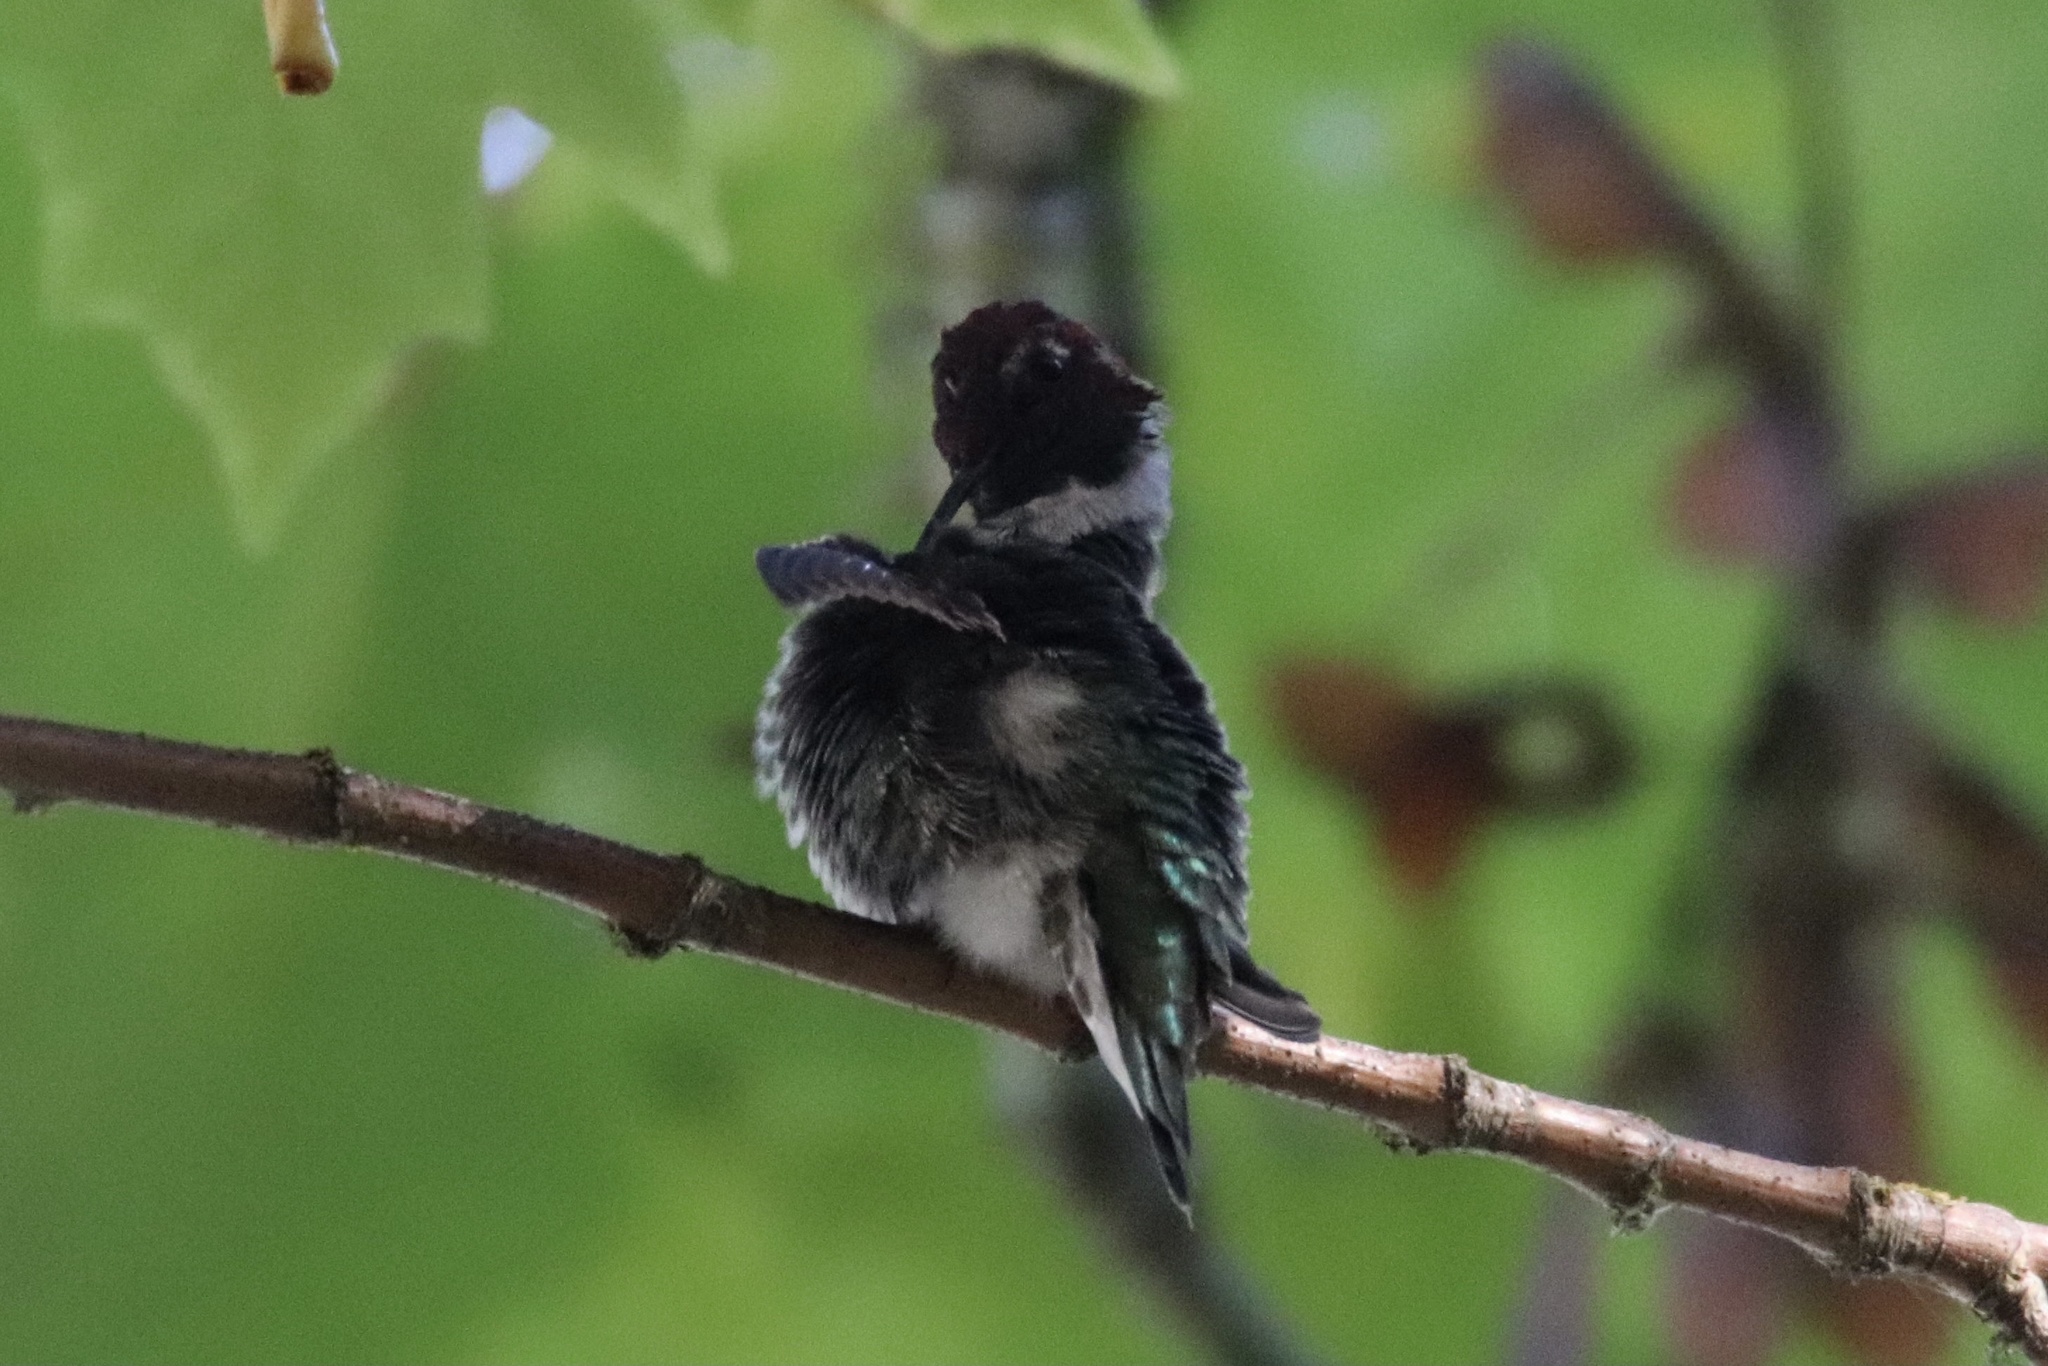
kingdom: Animalia
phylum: Chordata
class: Aves
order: Apodiformes
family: Trochilidae
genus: Calypte
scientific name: Calypte anna
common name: Anna's hummingbird
